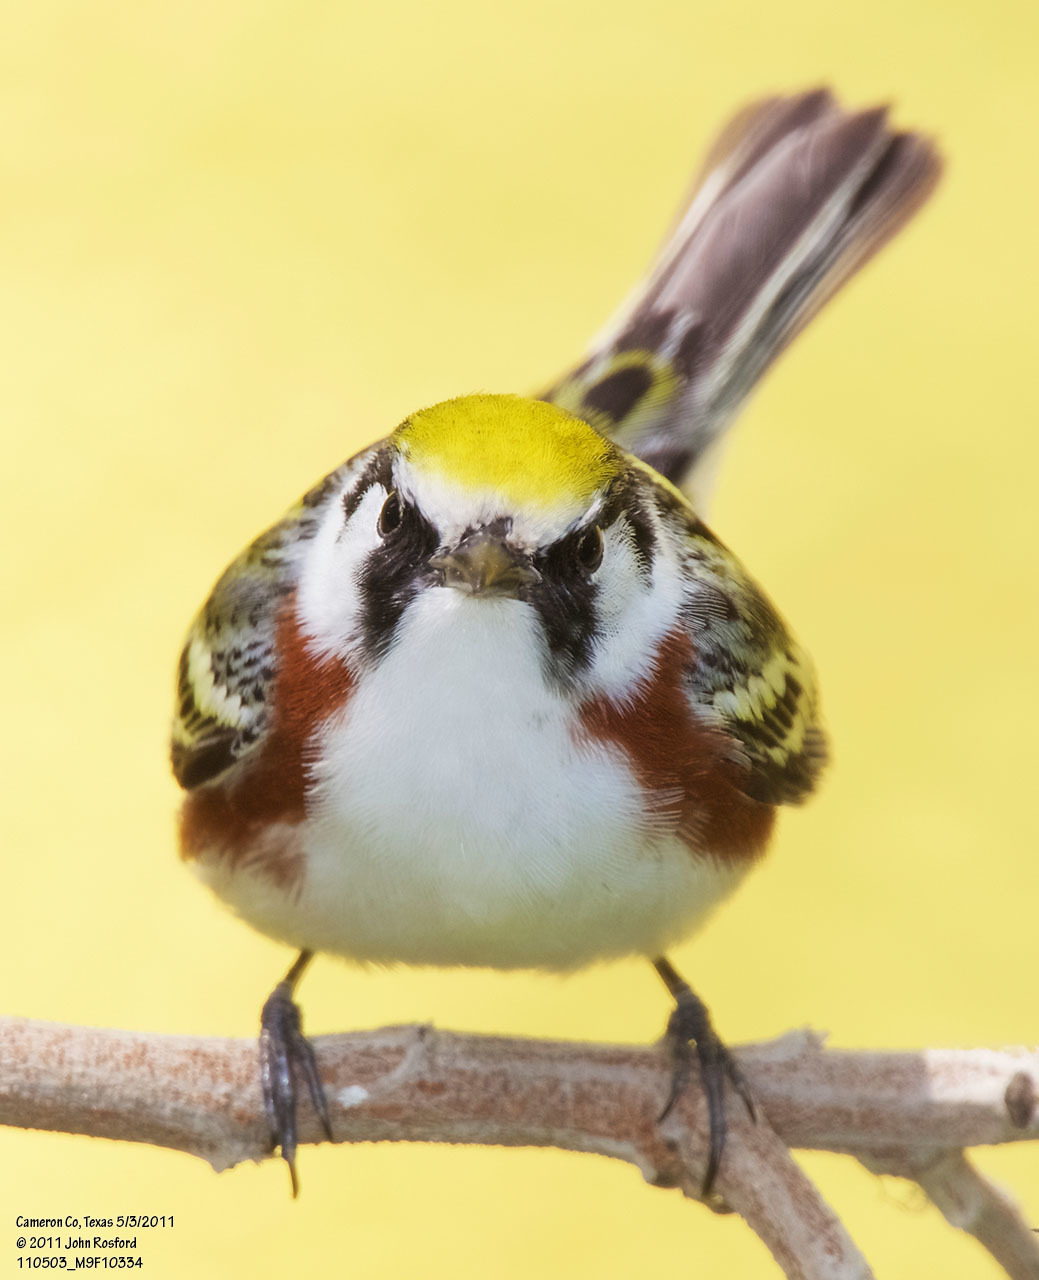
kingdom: Animalia
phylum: Chordata
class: Aves
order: Passeriformes
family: Parulidae
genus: Setophaga
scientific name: Setophaga pensylvanica
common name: Chestnut-sided warbler
